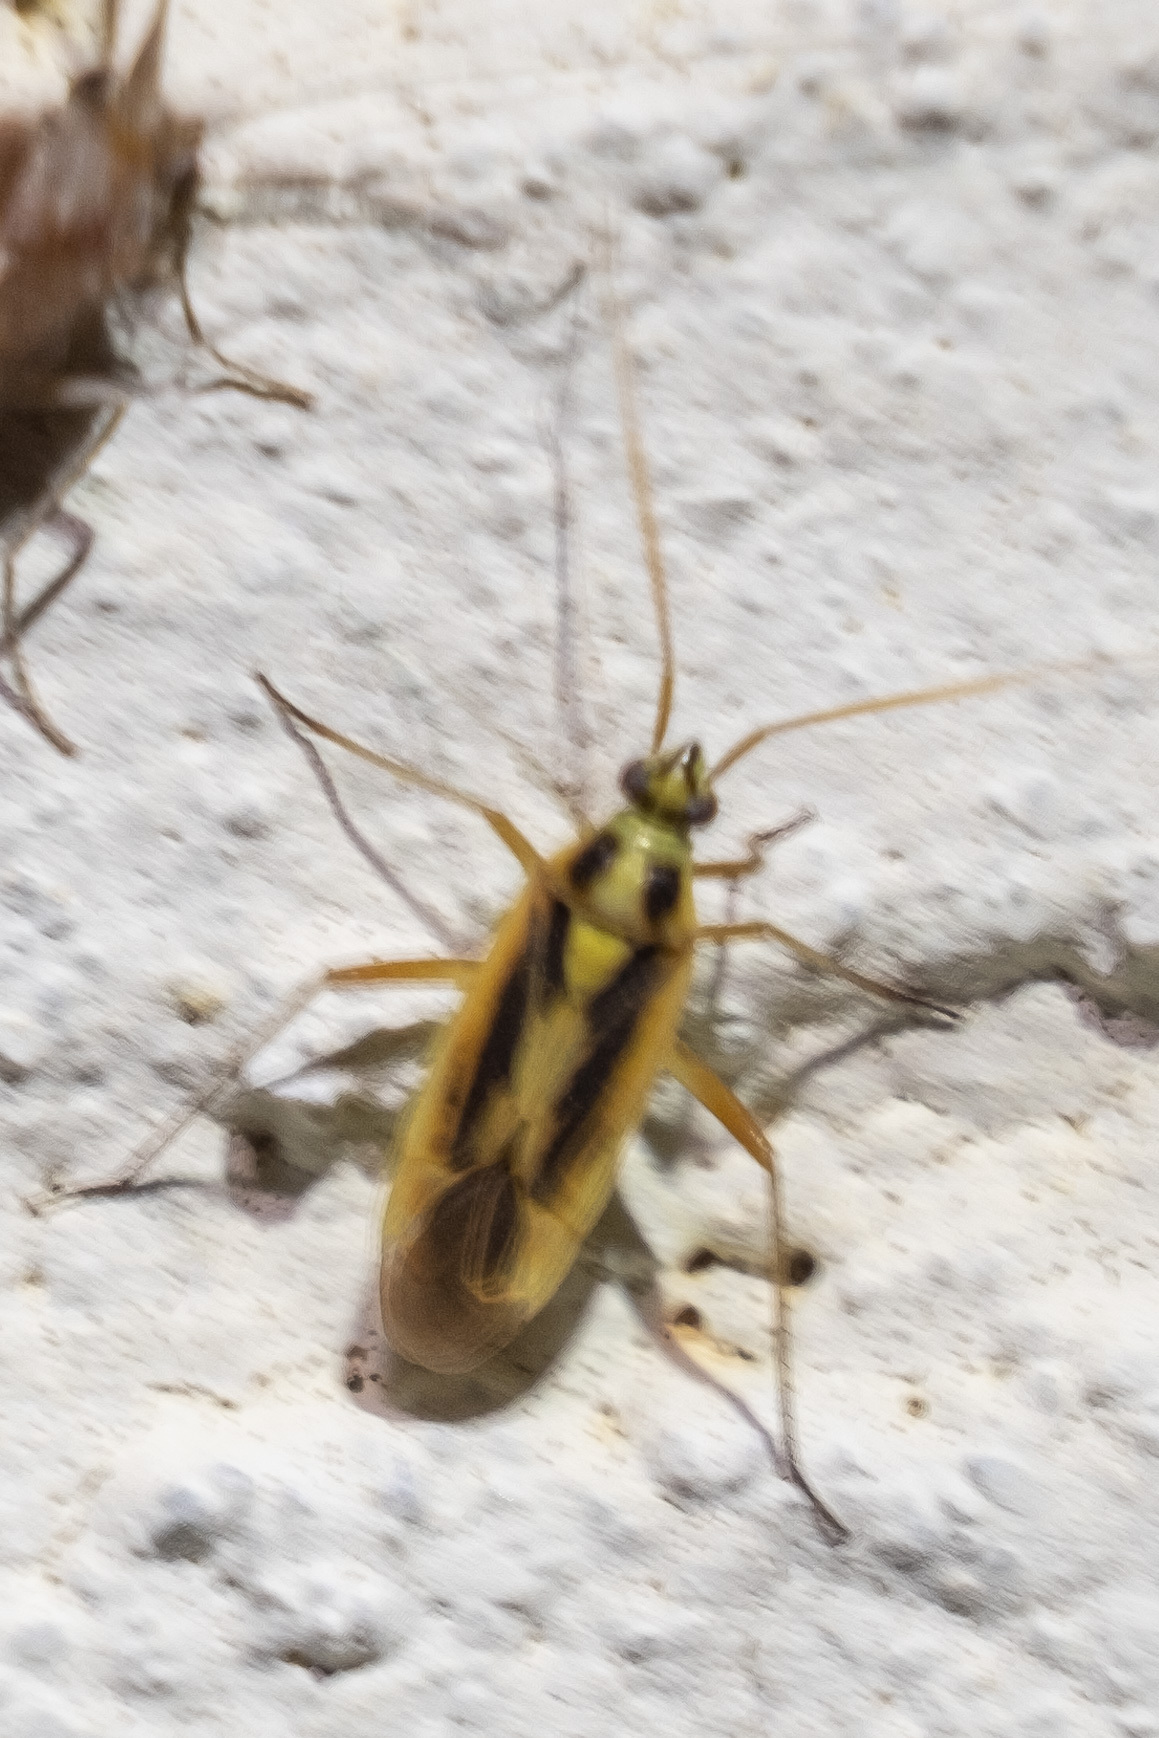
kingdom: Animalia
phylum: Arthropoda
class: Insecta
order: Hemiptera
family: Miridae
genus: Stenotus
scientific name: Stenotus binotatus
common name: Plant bug
